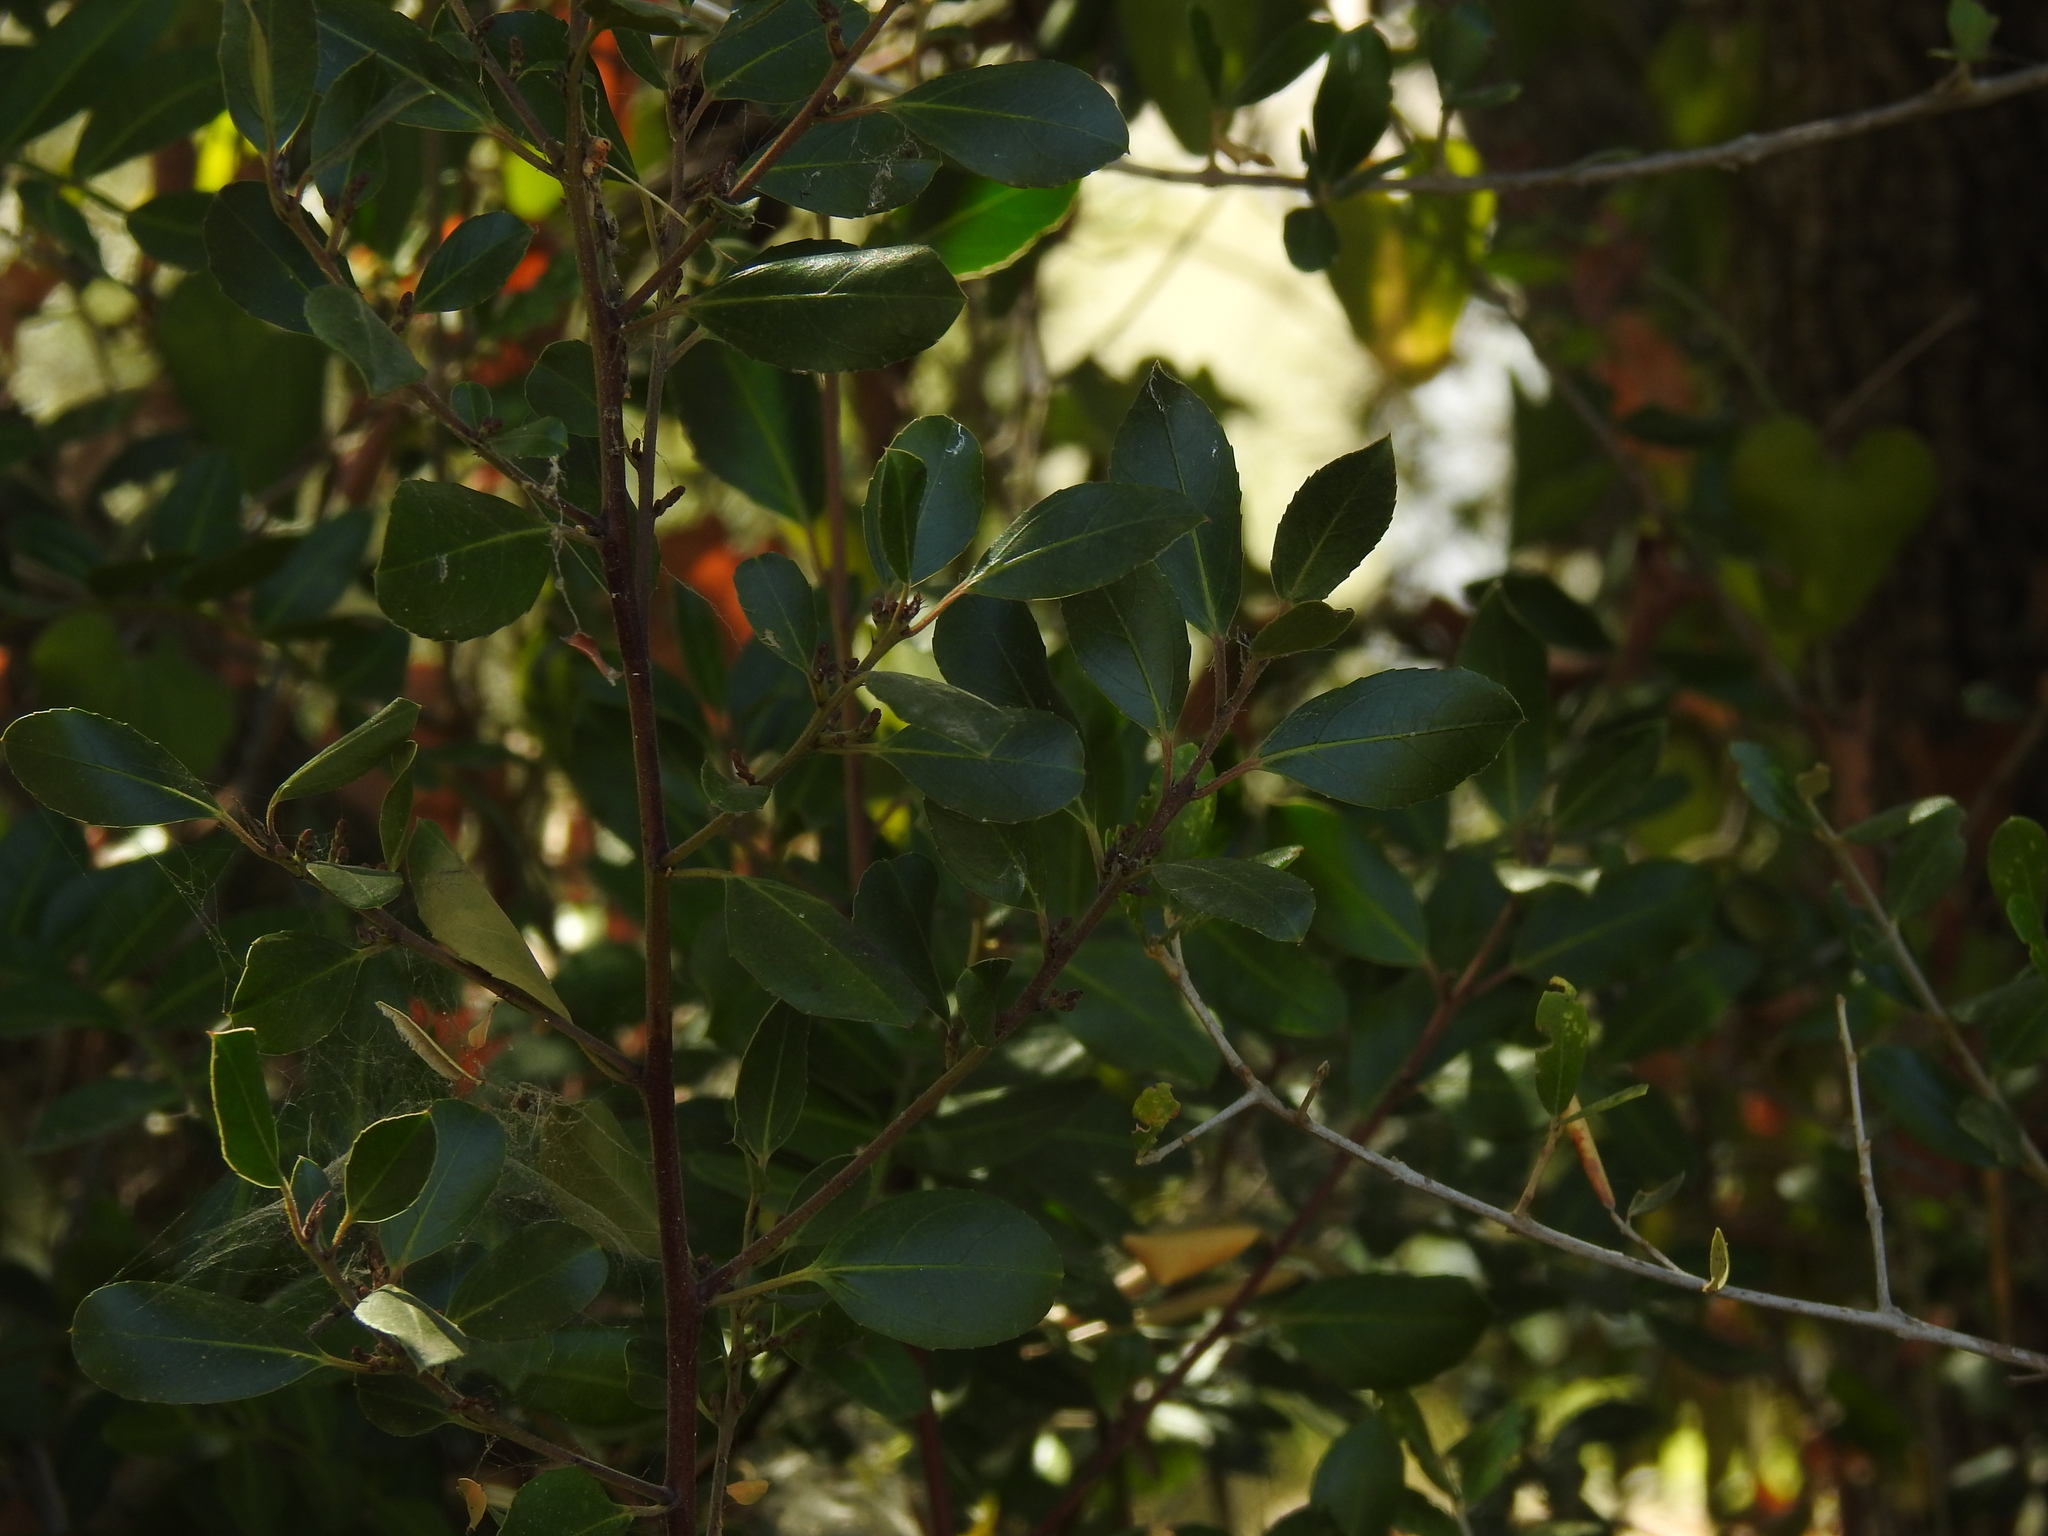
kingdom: Plantae
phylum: Tracheophyta
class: Magnoliopsida
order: Rosales
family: Rhamnaceae
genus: Rhamnus
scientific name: Rhamnus alaternus
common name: Mediterranean buckthorn
